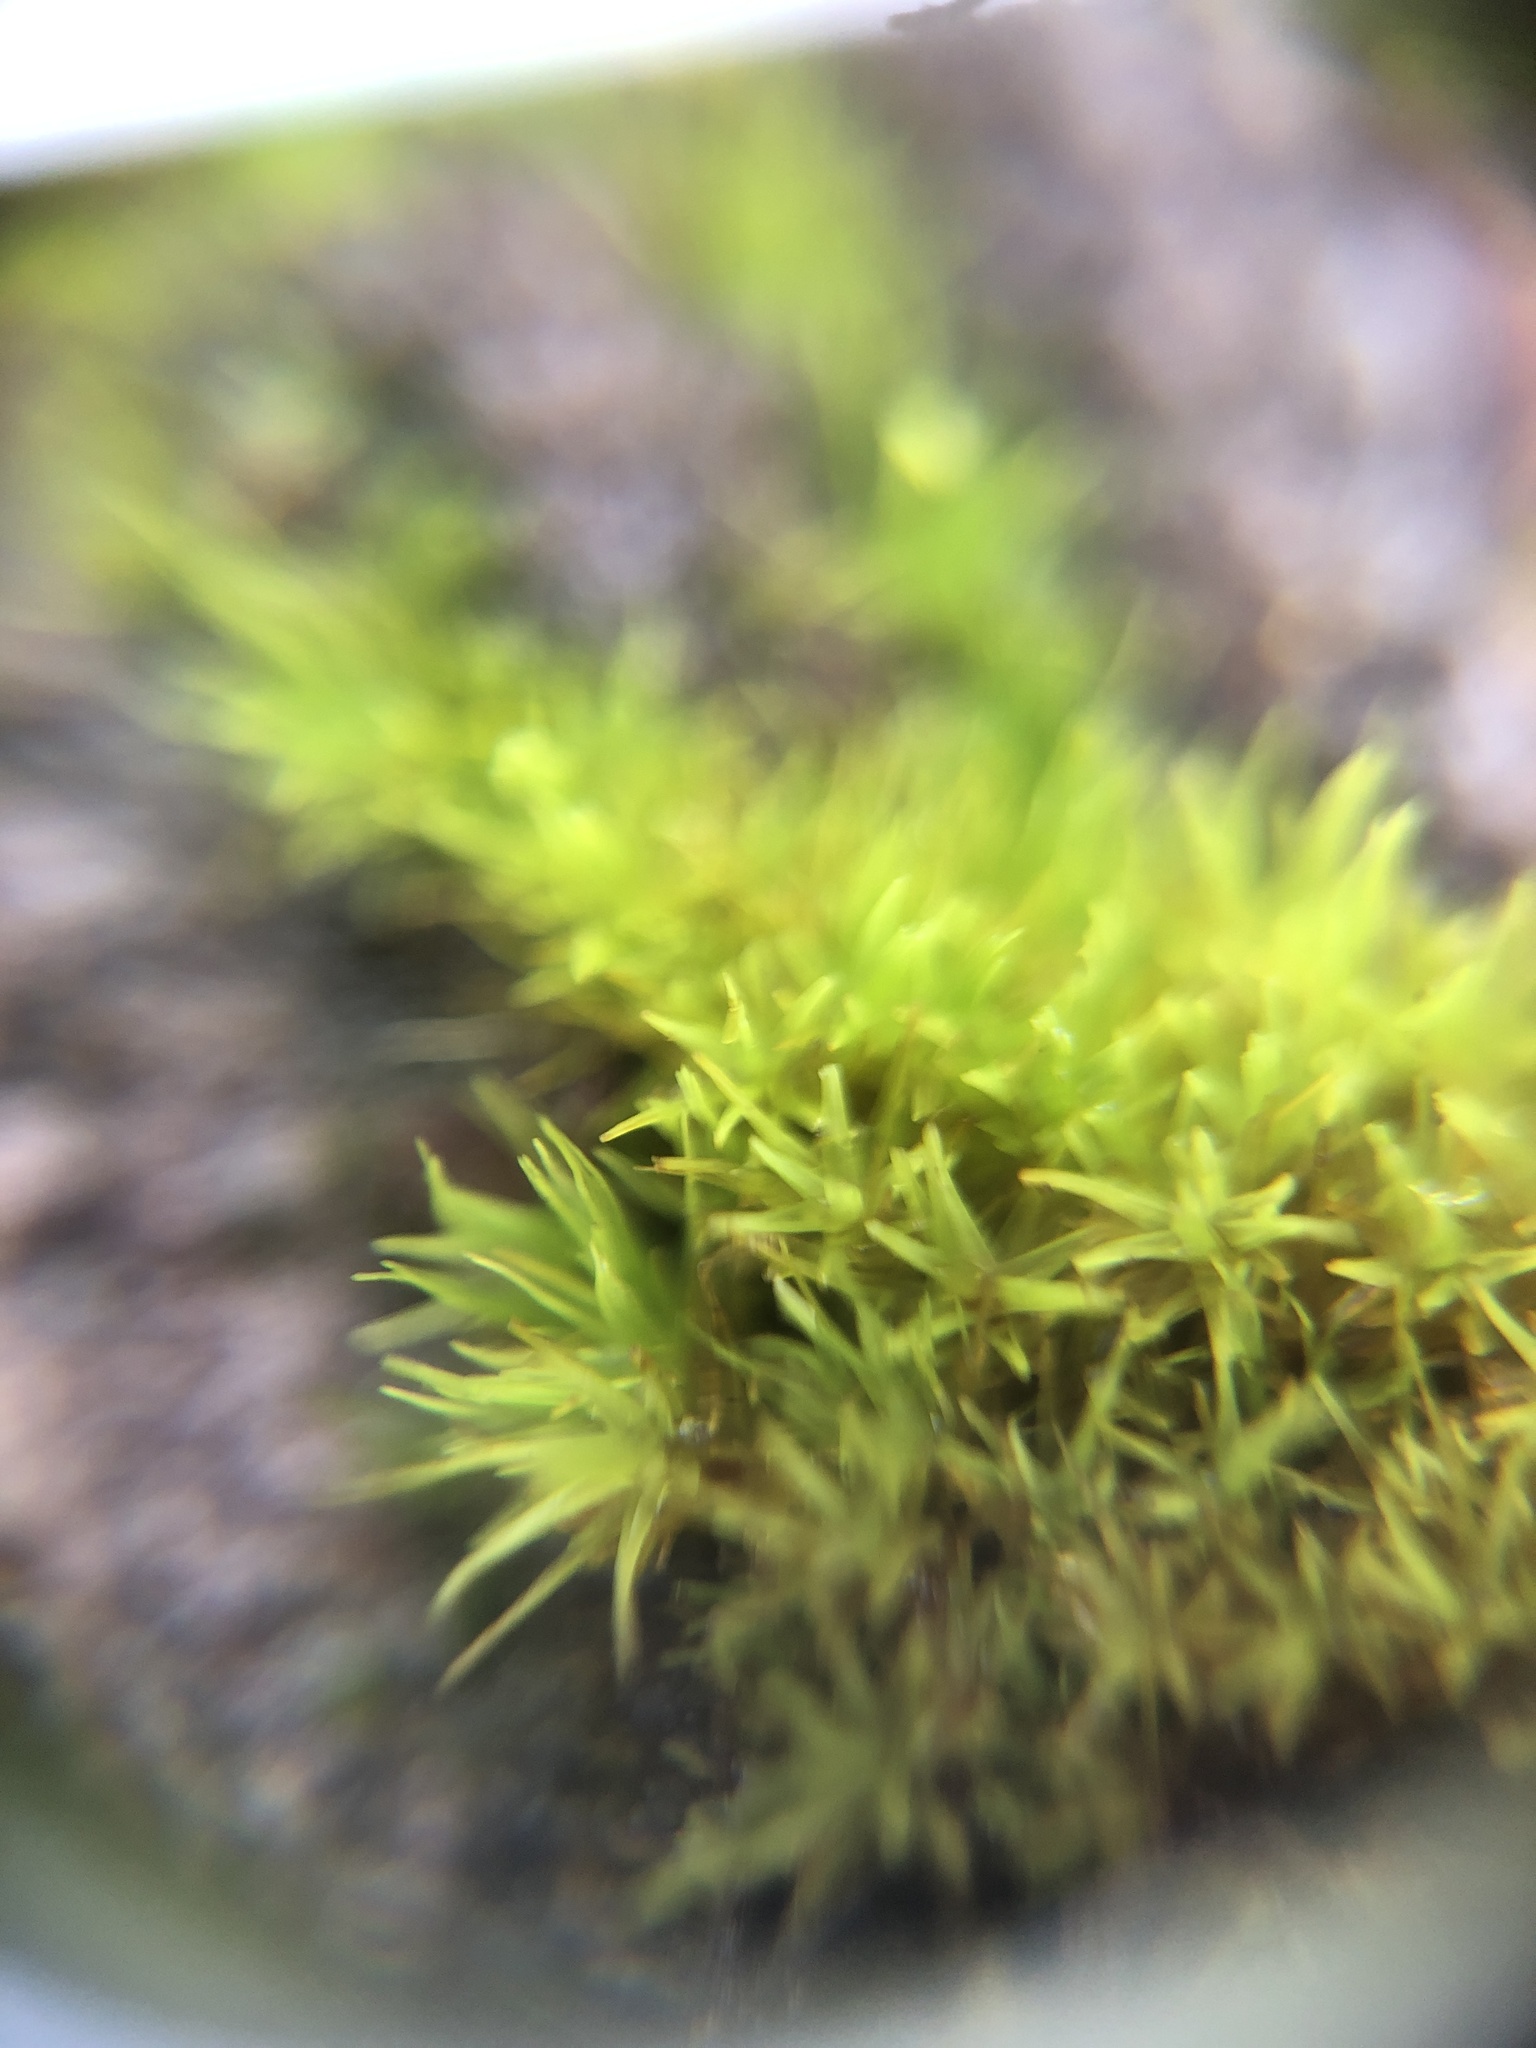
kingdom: Plantae
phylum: Bryophyta
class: Bryopsida
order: Dicranales
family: Dicranaceae
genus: Orthodicranum
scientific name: Orthodicranum tauricum
